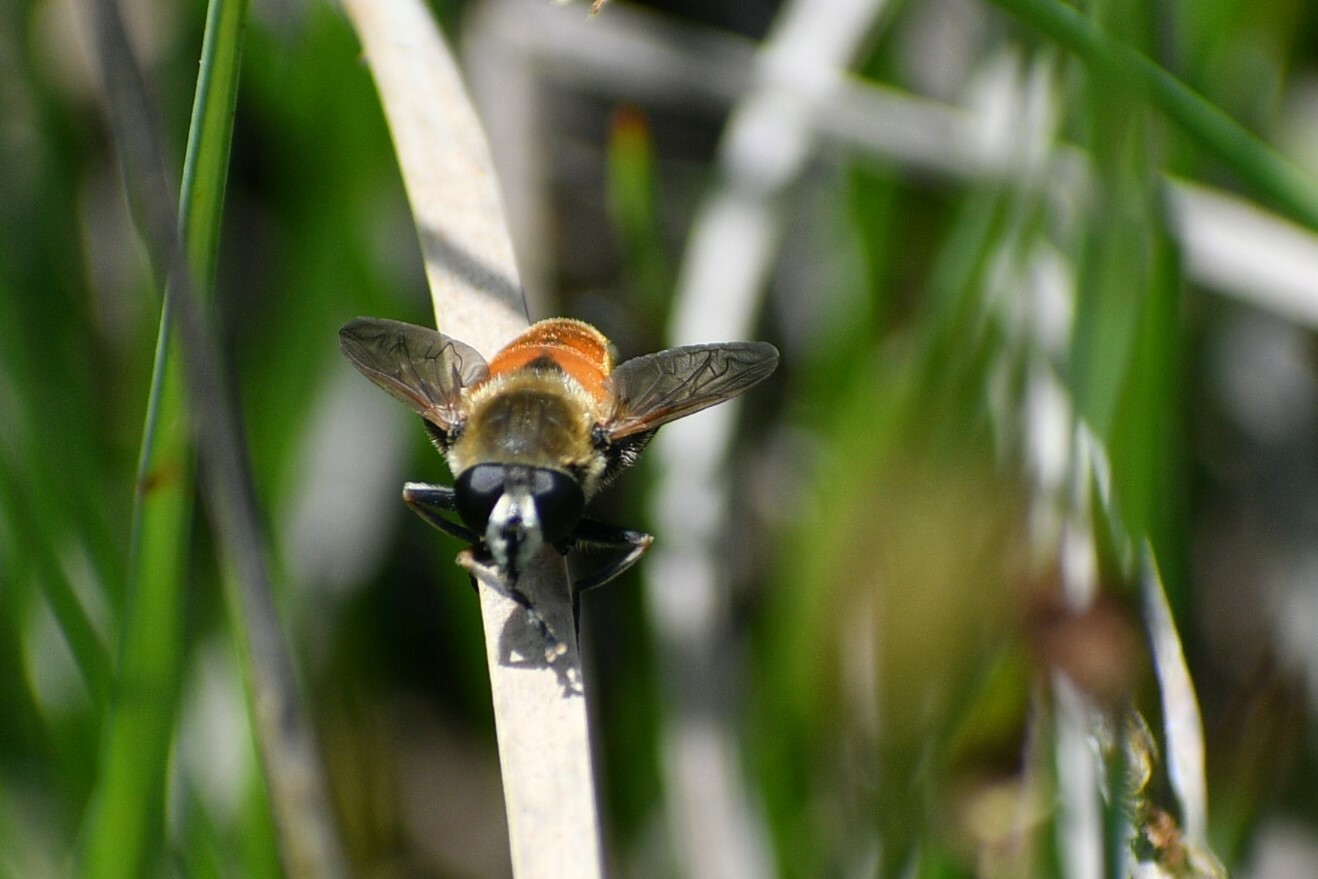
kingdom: Animalia
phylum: Arthropoda
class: Insecta
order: Diptera
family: Syrphidae
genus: Polydontomyia
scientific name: Polydontomyia curvipes
